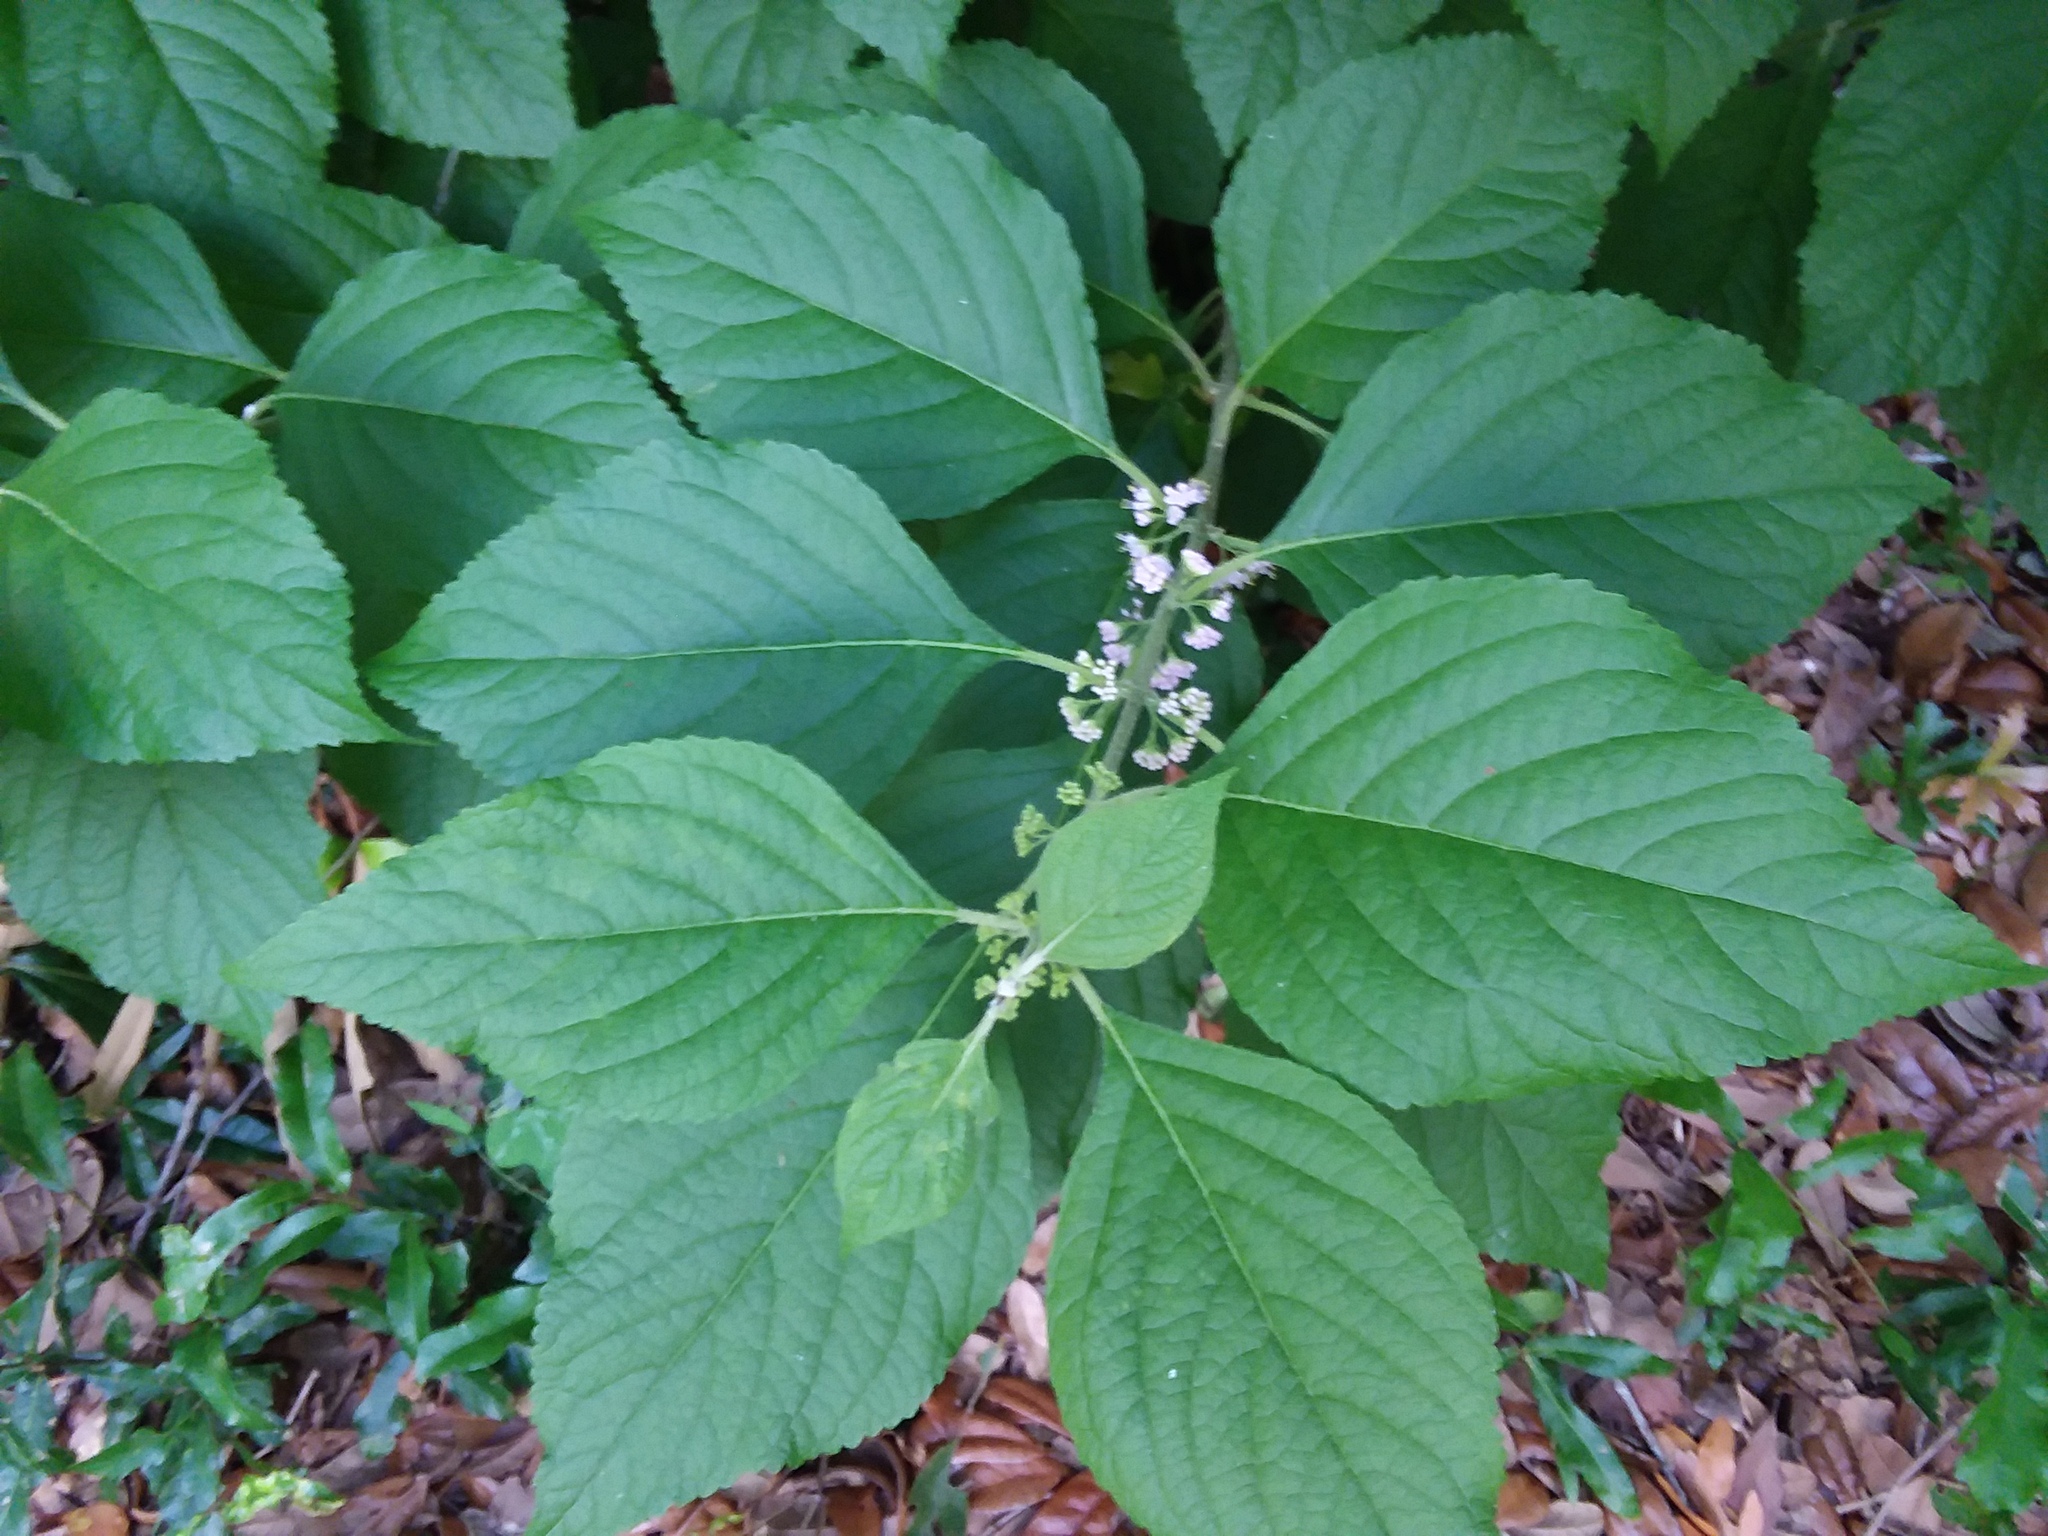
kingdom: Plantae
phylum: Tracheophyta
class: Magnoliopsida
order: Lamiales
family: Lamiaceae
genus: Callicarpa
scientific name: Callicarpa americana
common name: American beautyberry
